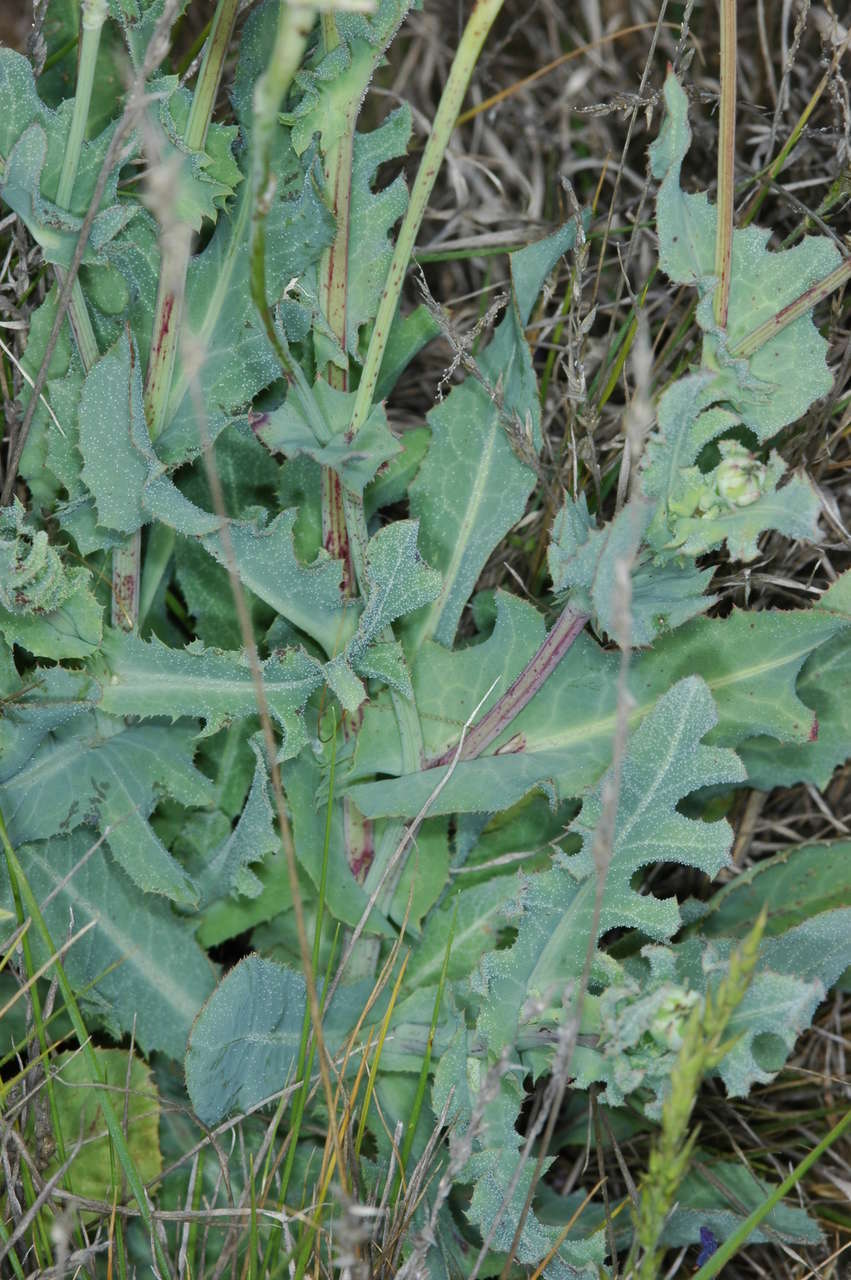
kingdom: Plantae
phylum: Tracheophyta
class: Magnoliopsida
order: Asterales
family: Asteraceae
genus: Reichardia
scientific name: Reichardia tingitana
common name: Reichardia
